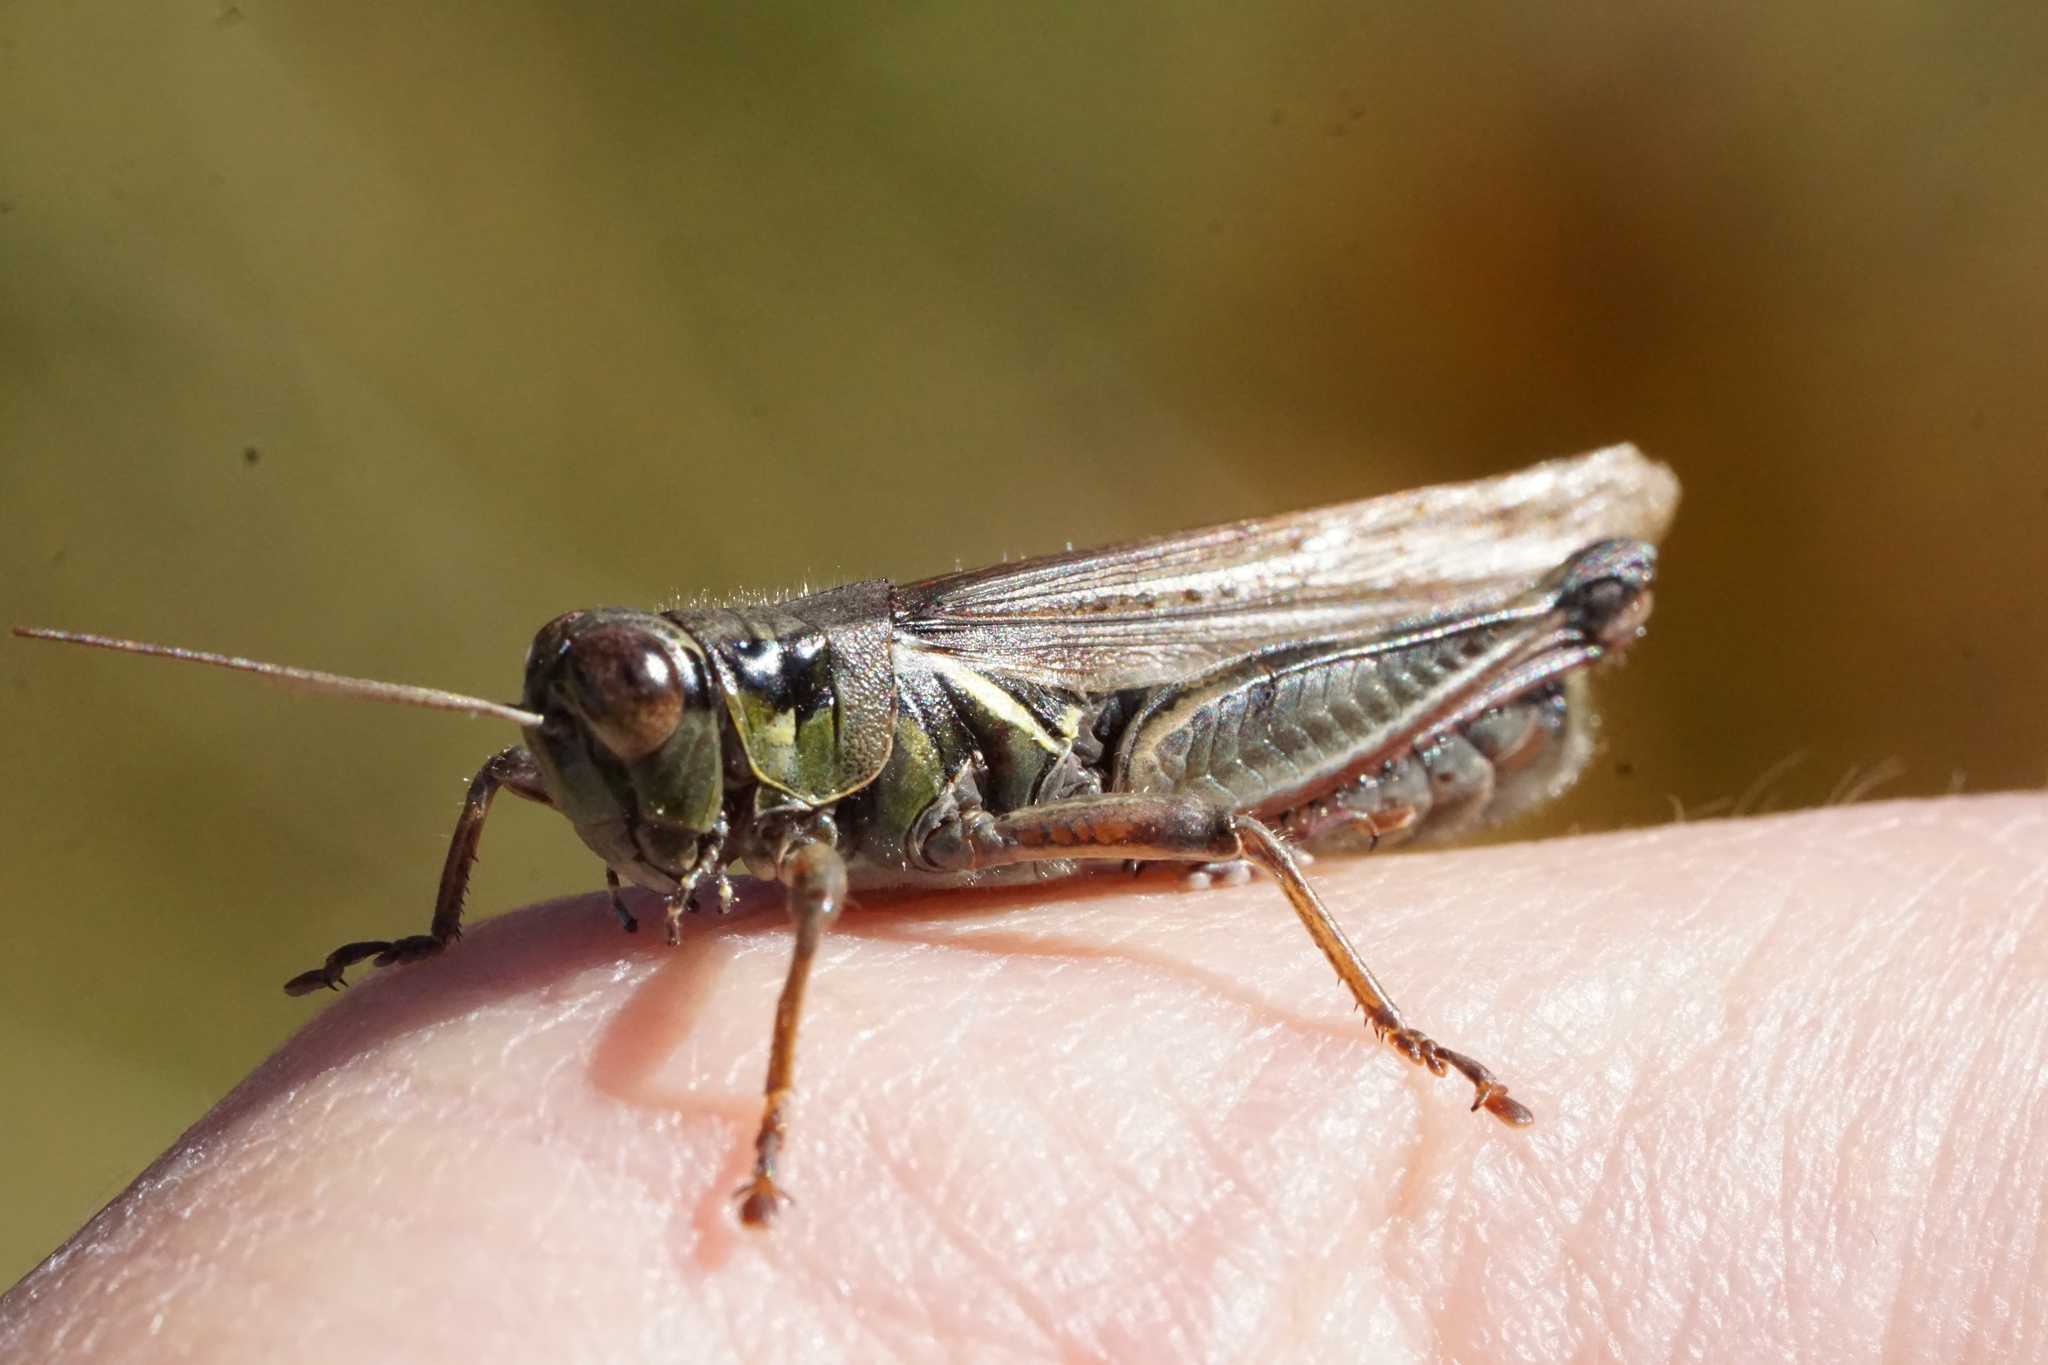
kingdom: Animalia
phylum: Arthropoda
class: Insecta
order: Orthoptera
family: Acrididae
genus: Melanoplus
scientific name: Melanoplus femurrubrum
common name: Red-legged grasshopper
